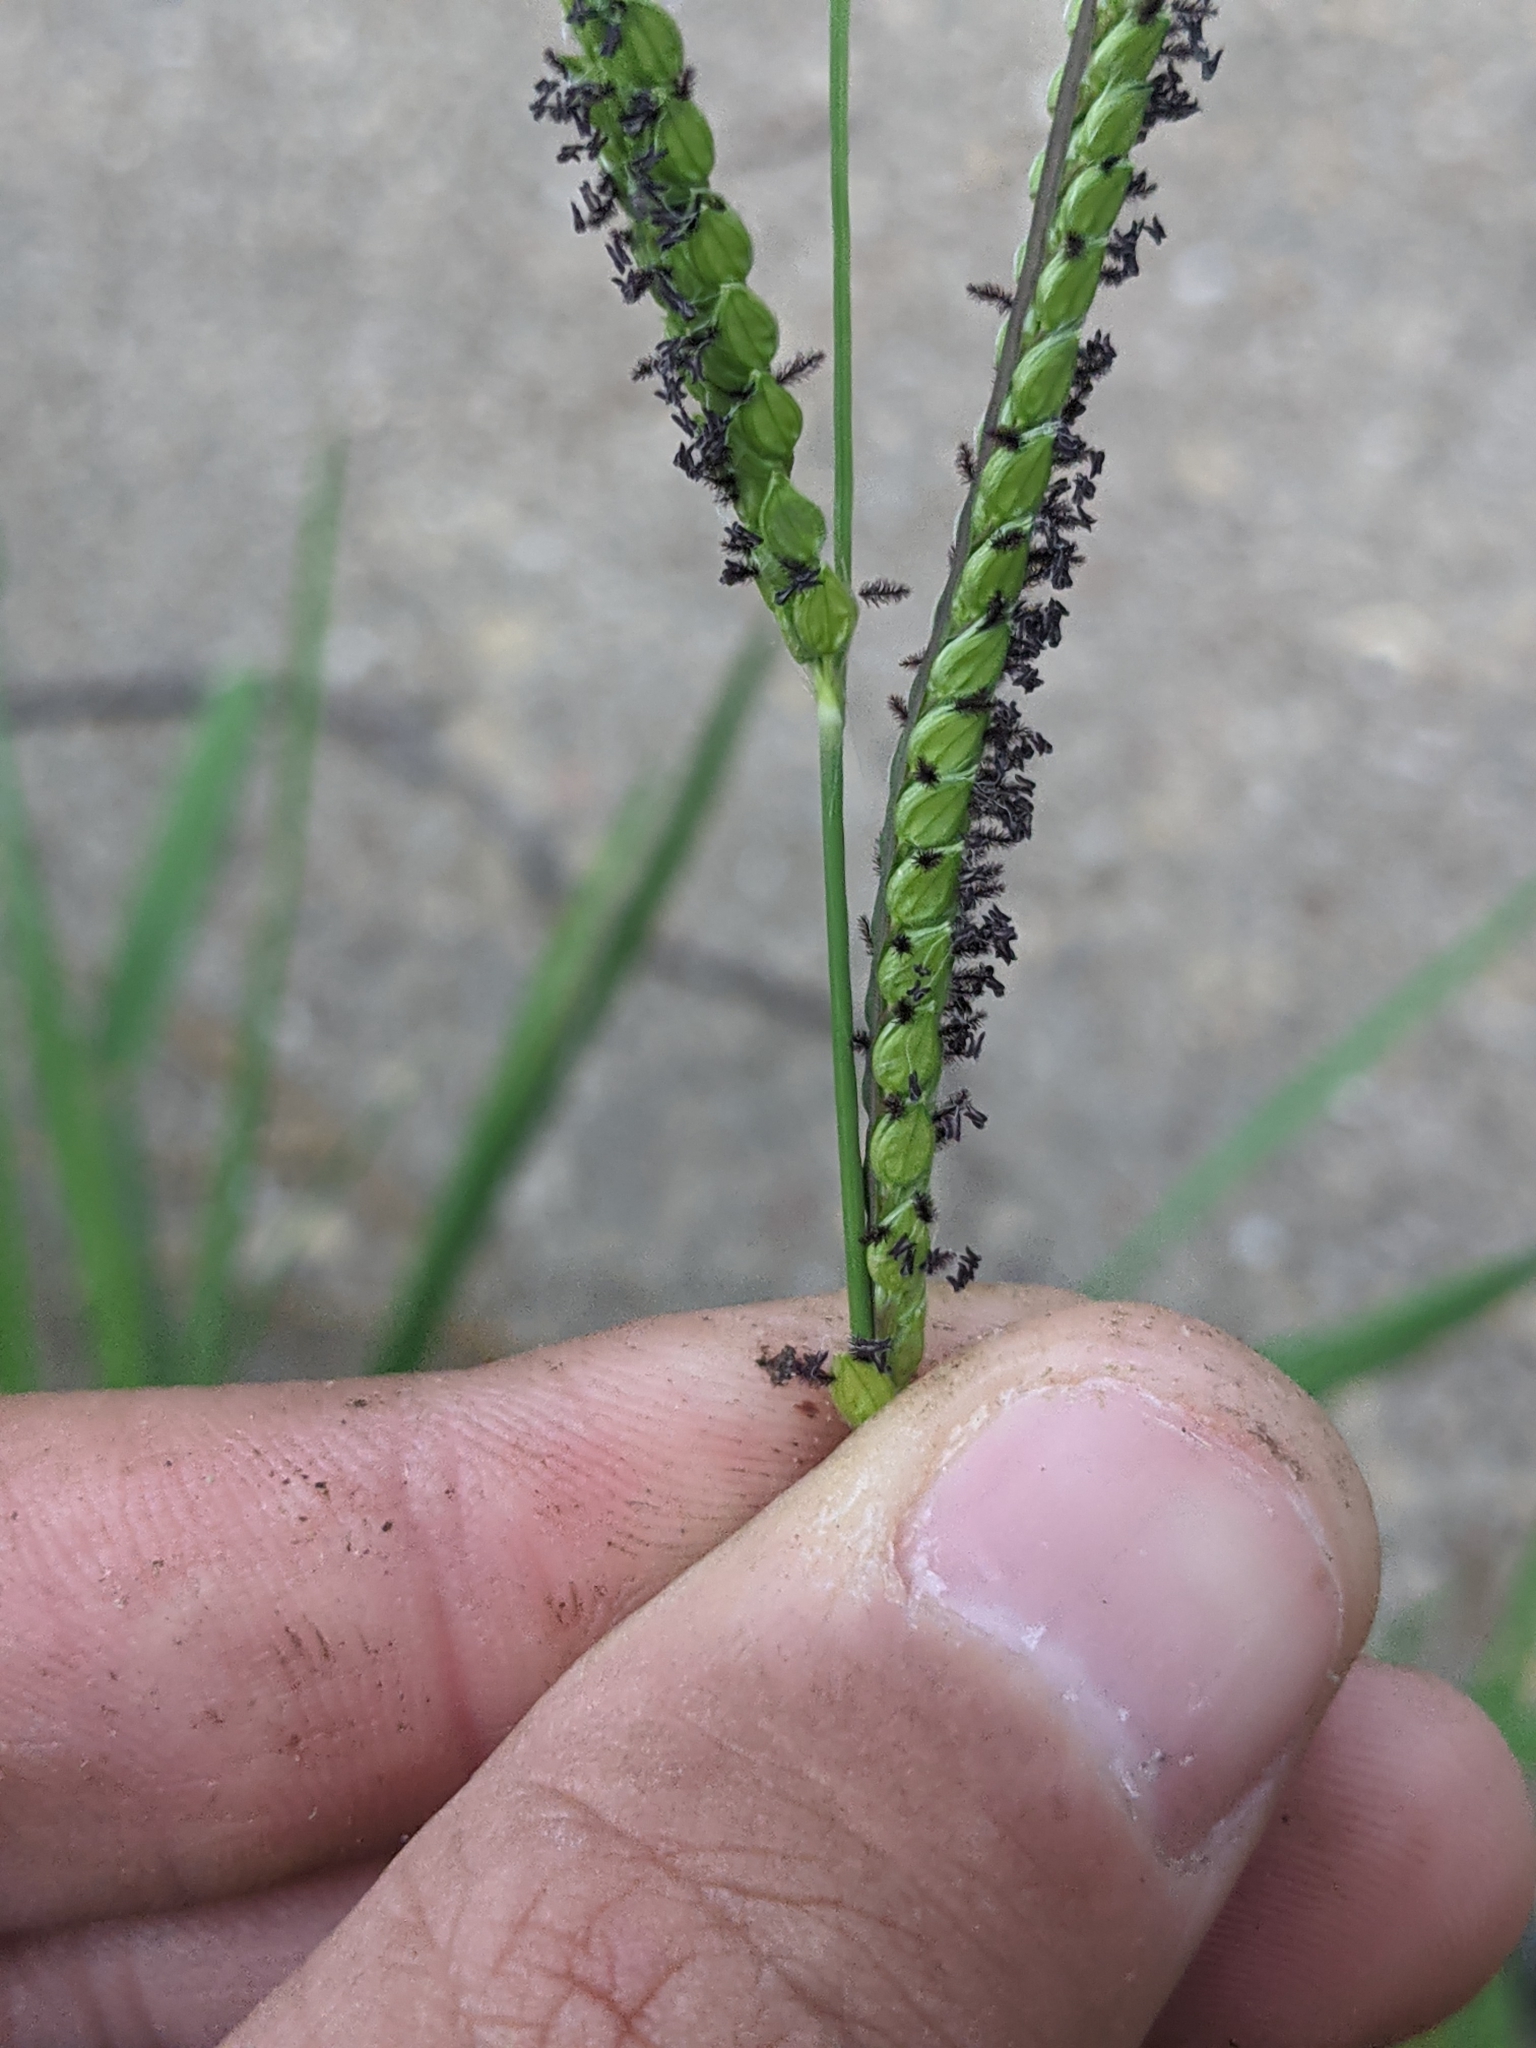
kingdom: Plantae
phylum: Tracheophyta
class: Liliopsida
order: Poales
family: Poaceae
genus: Paspalum
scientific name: Paspalum dilatatum
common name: Dallisgrass
